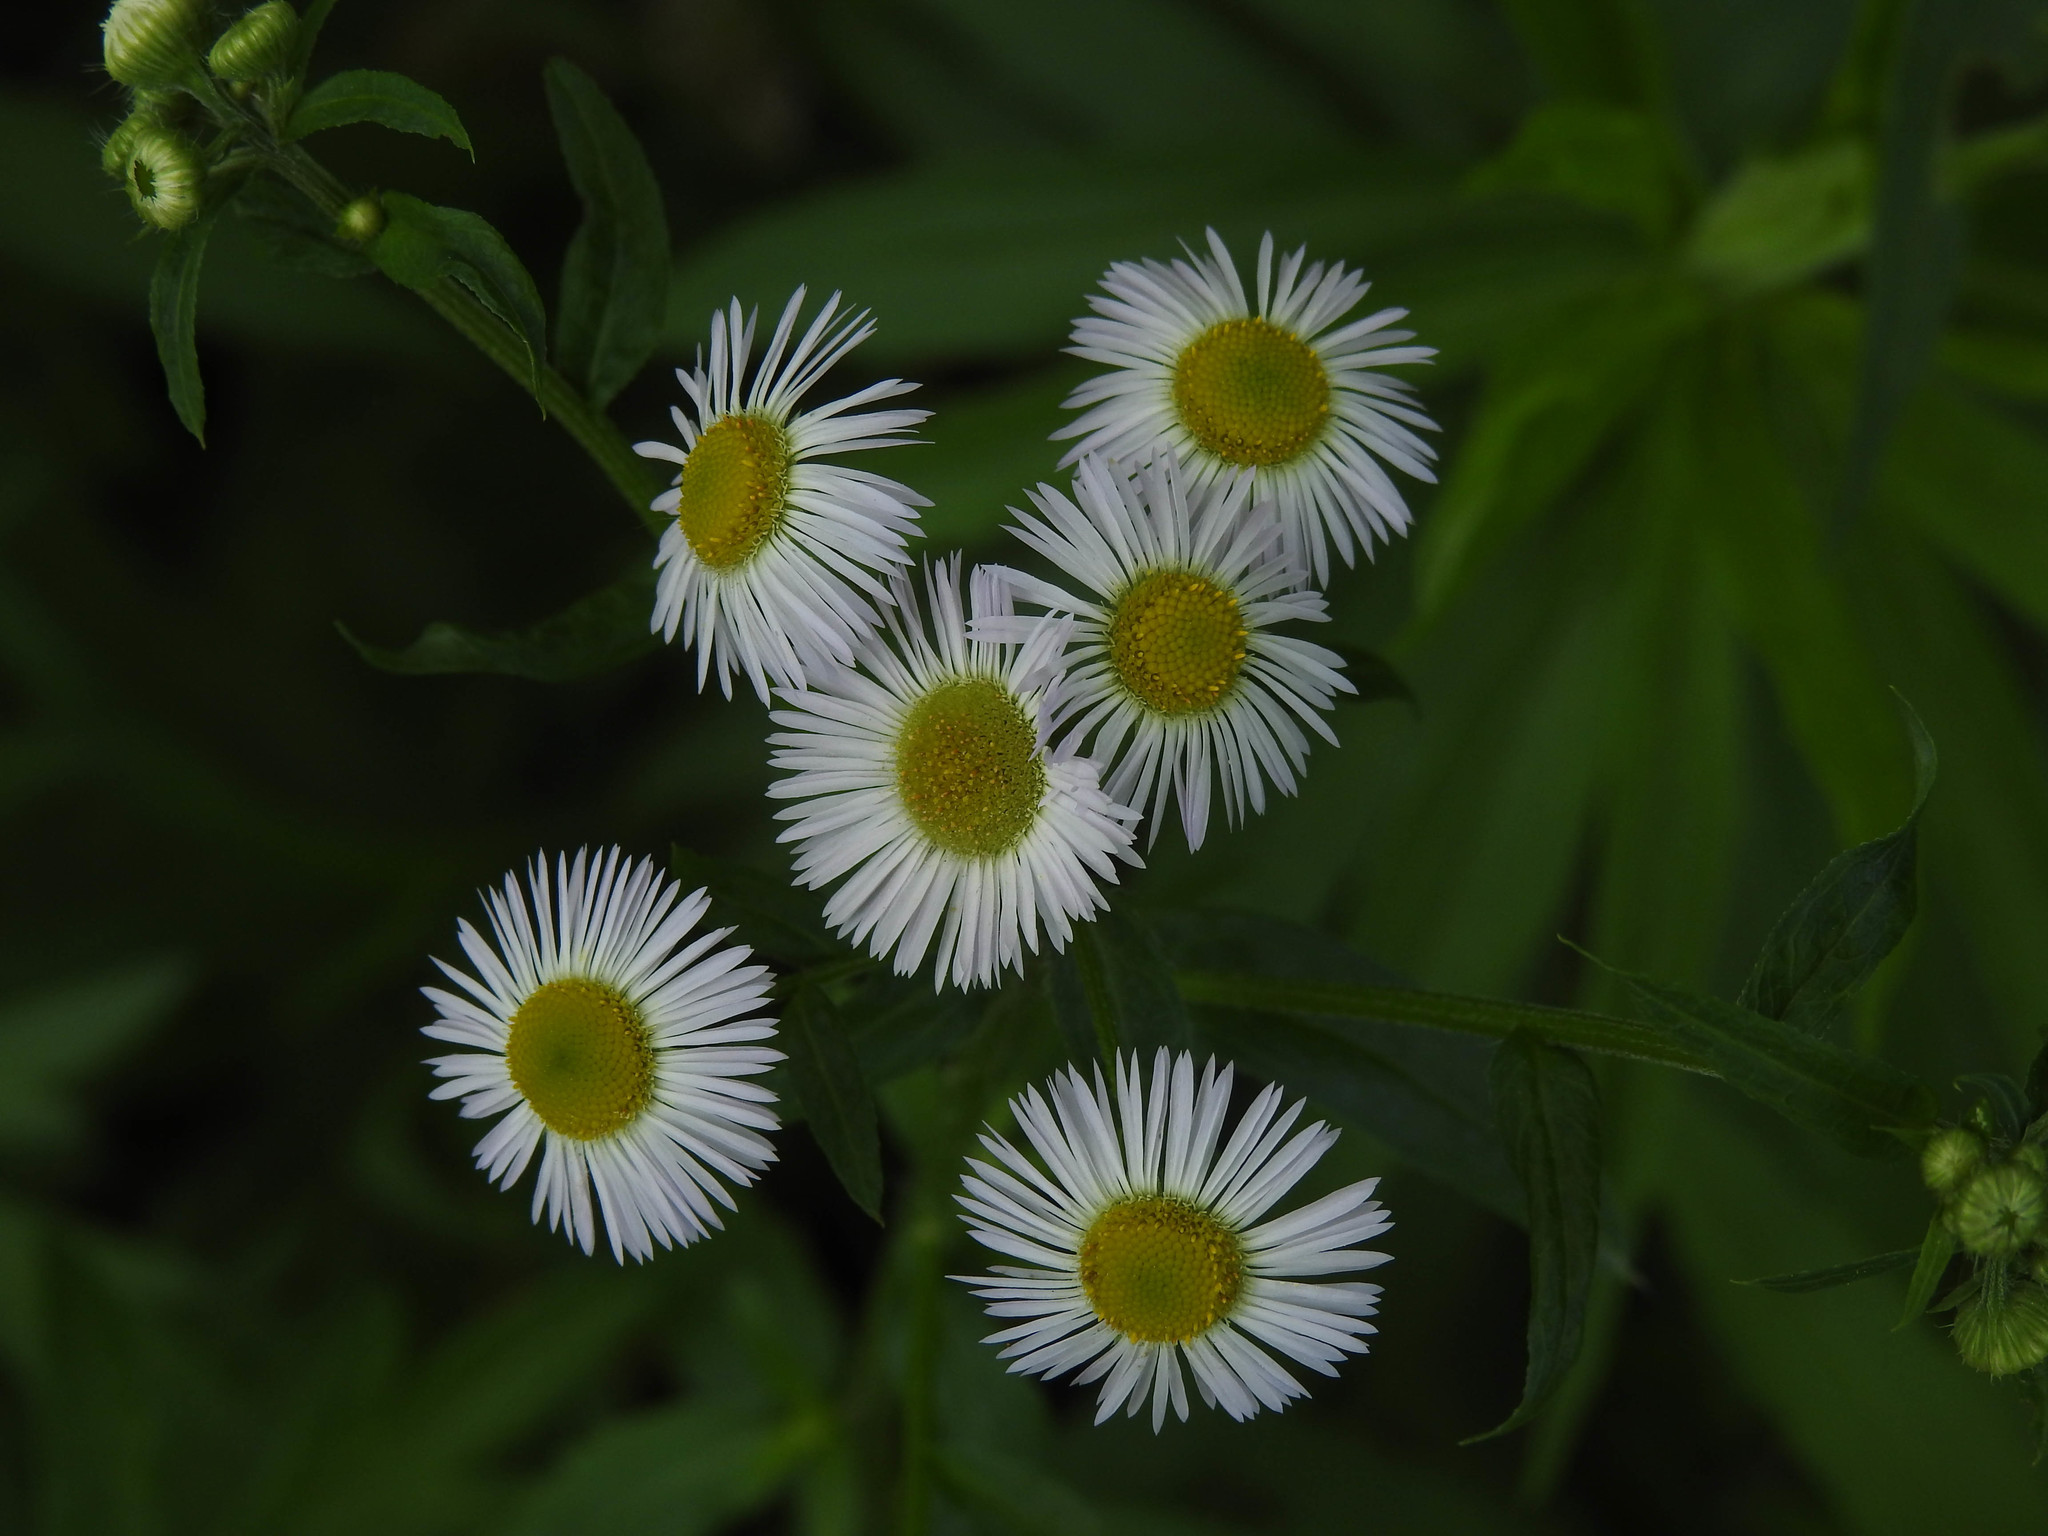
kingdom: Plantae
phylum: Tracheophyta
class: Magnoliopsida
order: Asterales
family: Asteraceae
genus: Erigeron
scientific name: Erigeron philadelphicus
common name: Robin's-plantain
